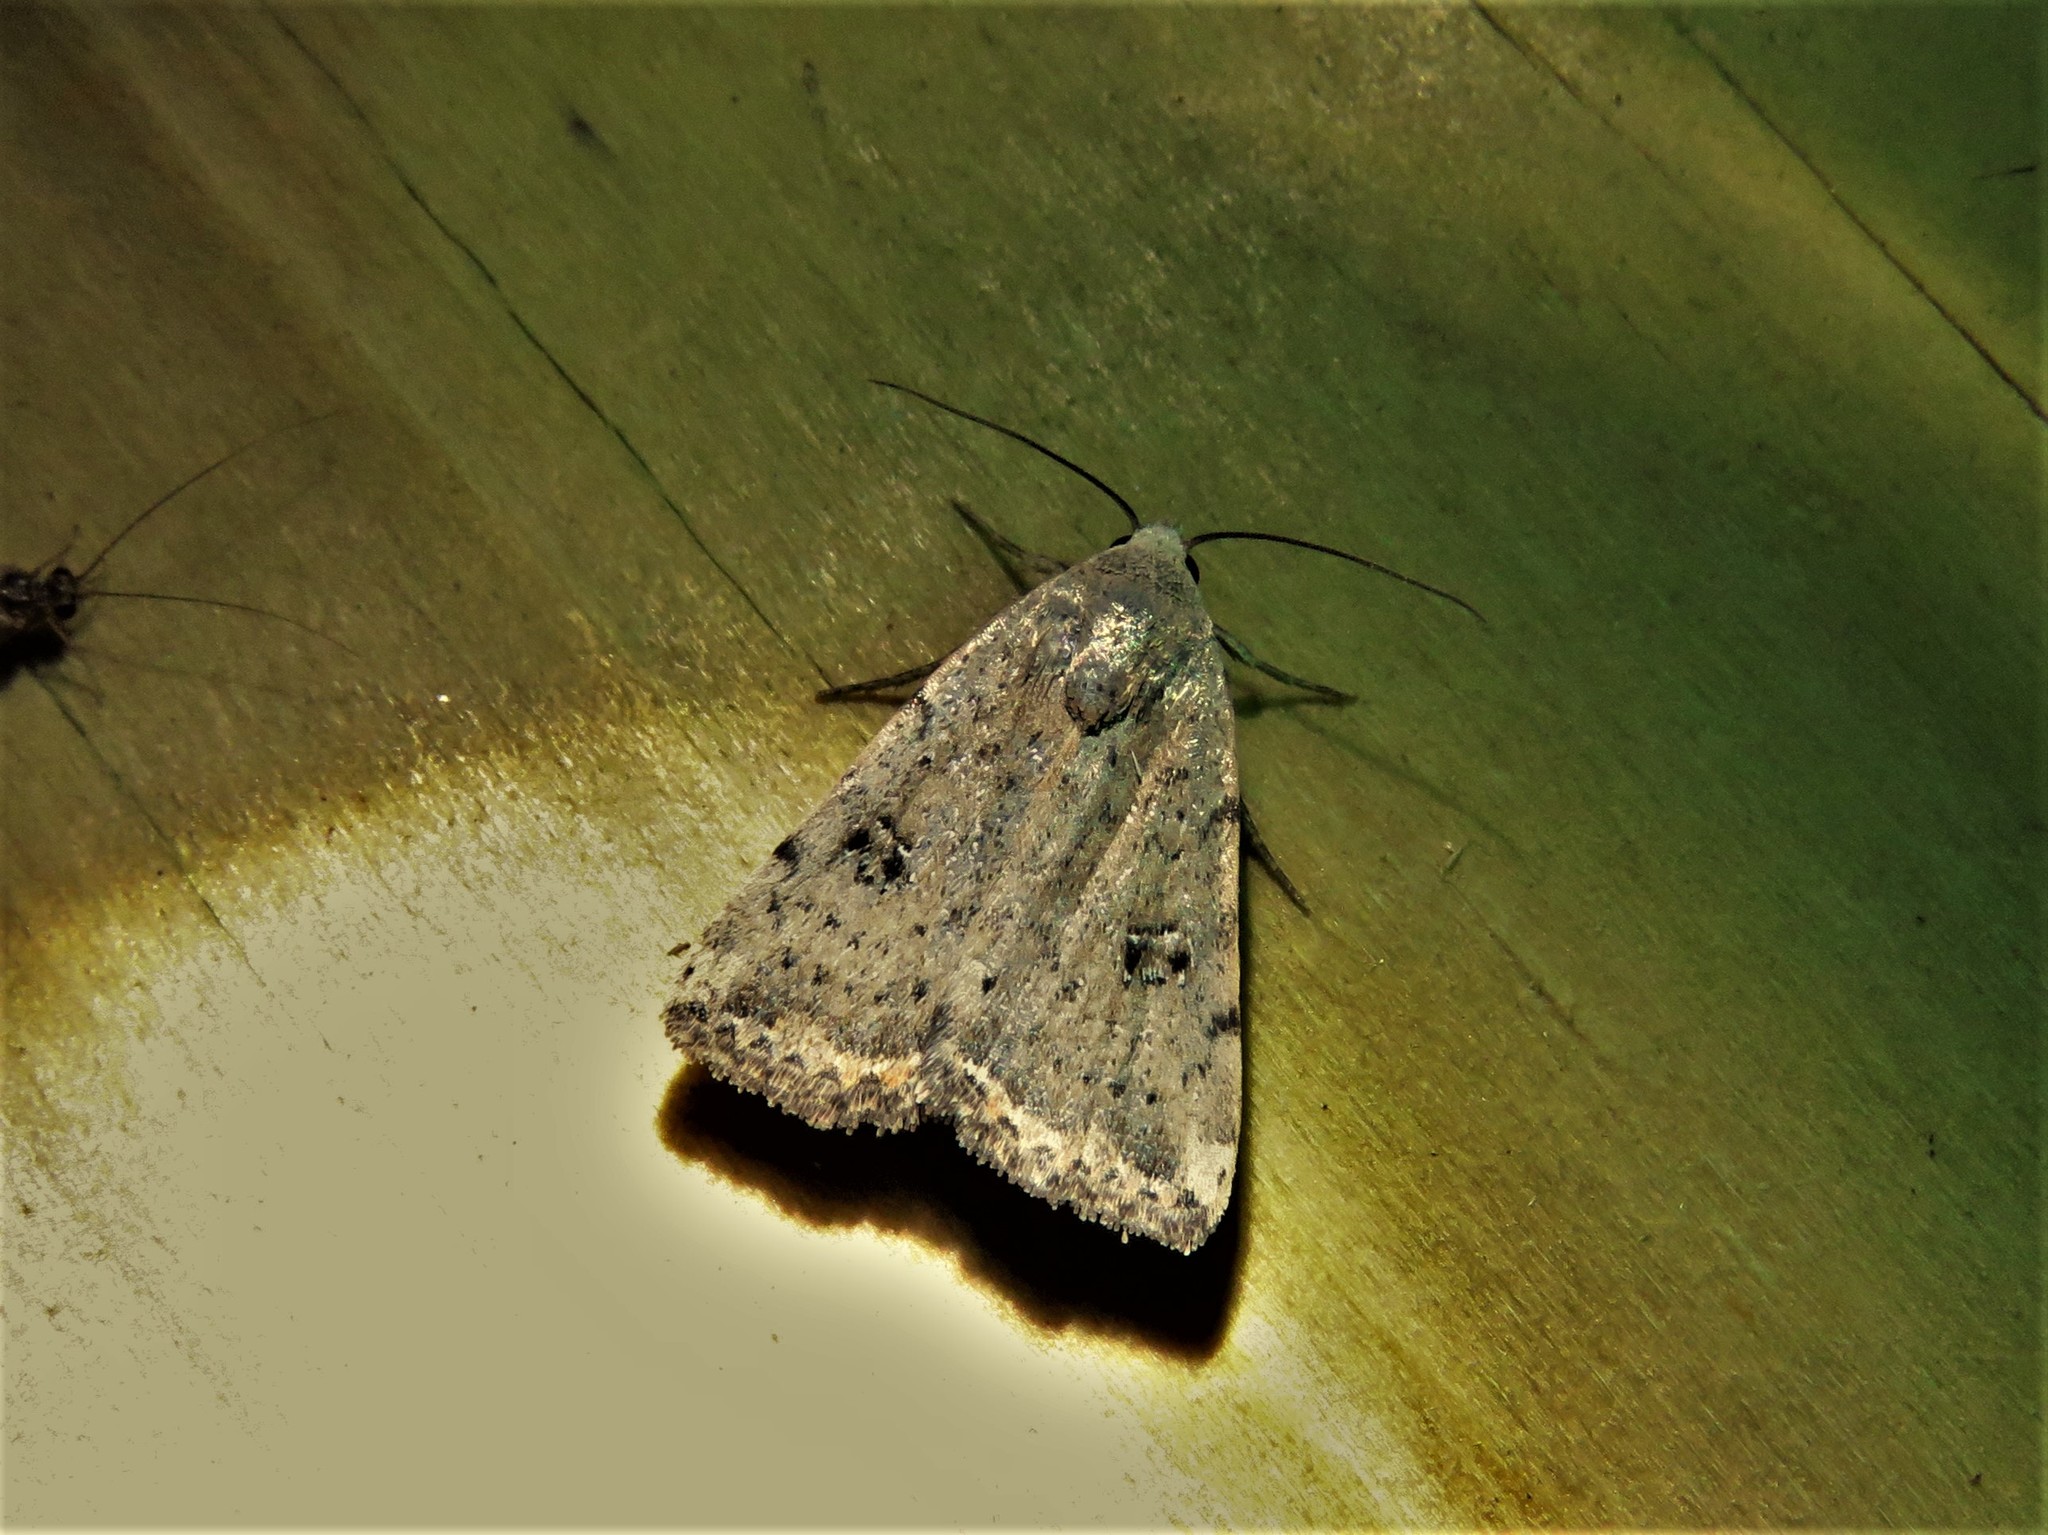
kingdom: Animalia
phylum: Arthropoda
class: Insecta
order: Lepidoptera
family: Noctuidae
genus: Micrathetis
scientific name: Micrathetis triplex
